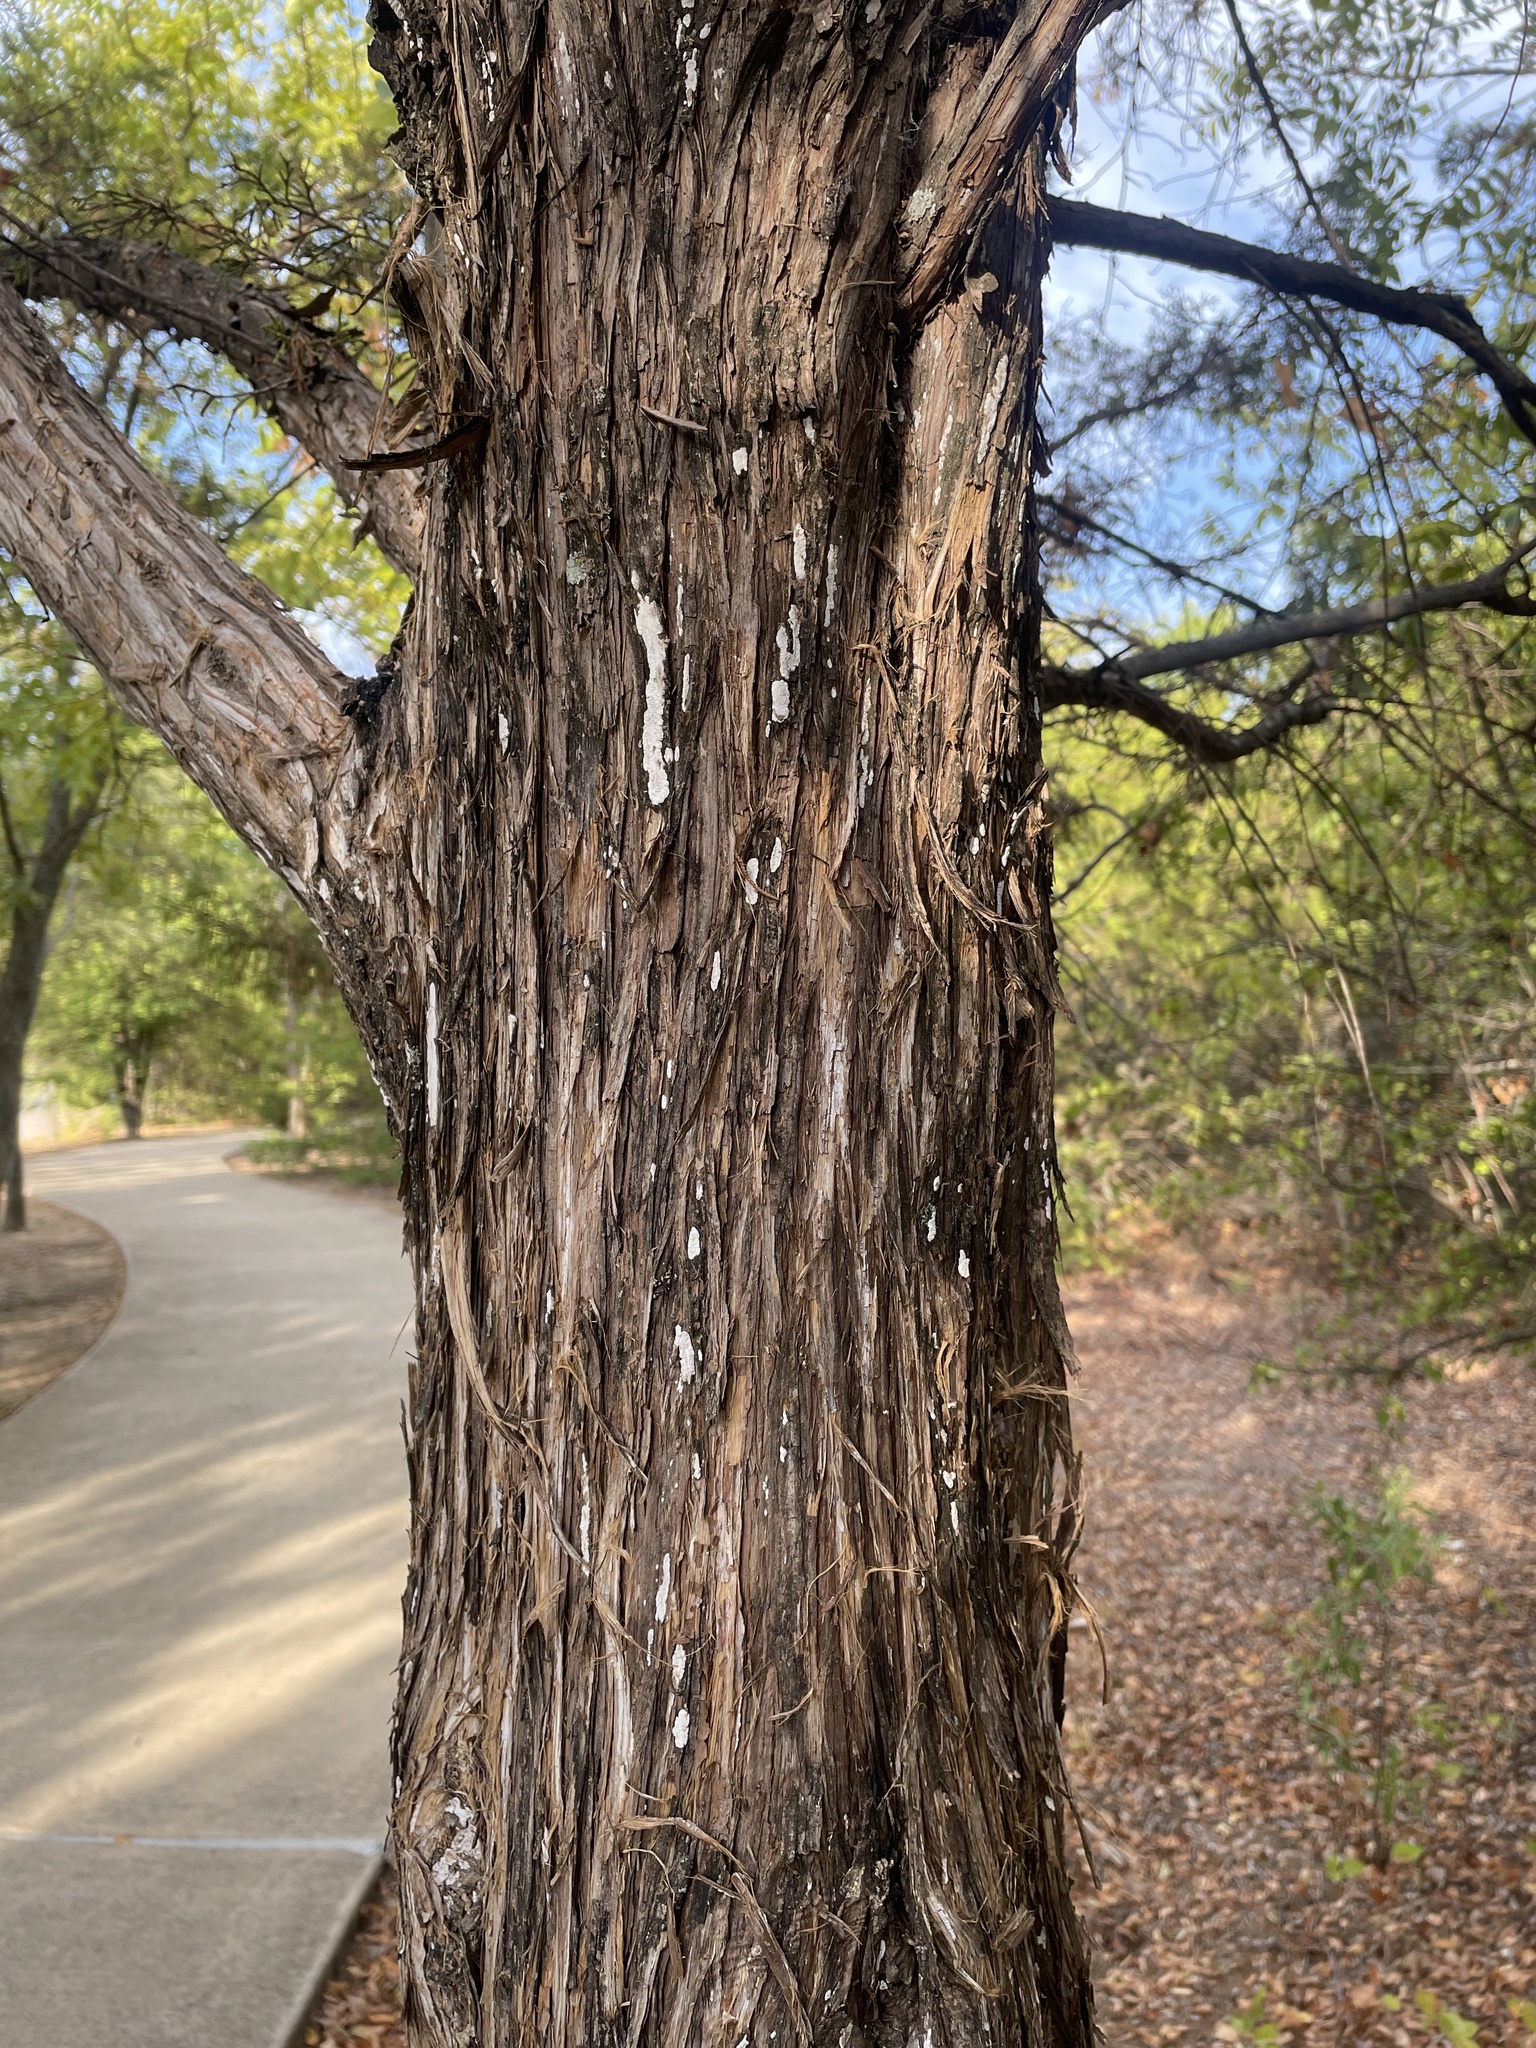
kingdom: Fungi
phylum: Basidiomycota
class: Agaricomycetes
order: Agaricales
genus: Dendrothele
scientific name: Dendrothele nivosa
